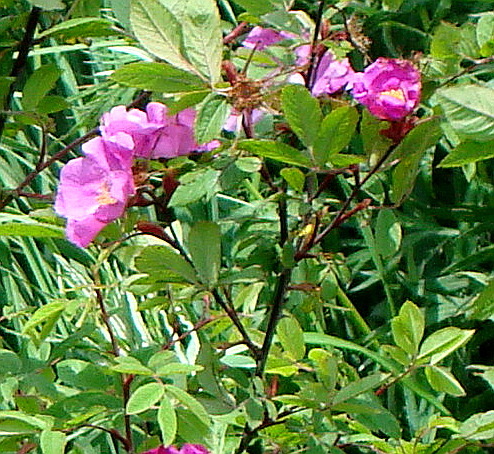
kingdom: Plantae
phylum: Tracheophyta
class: Magnoliopsida
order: Rosales
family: Rosaceae
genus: Rosa
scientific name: Rosa davurica
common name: Amur rose
